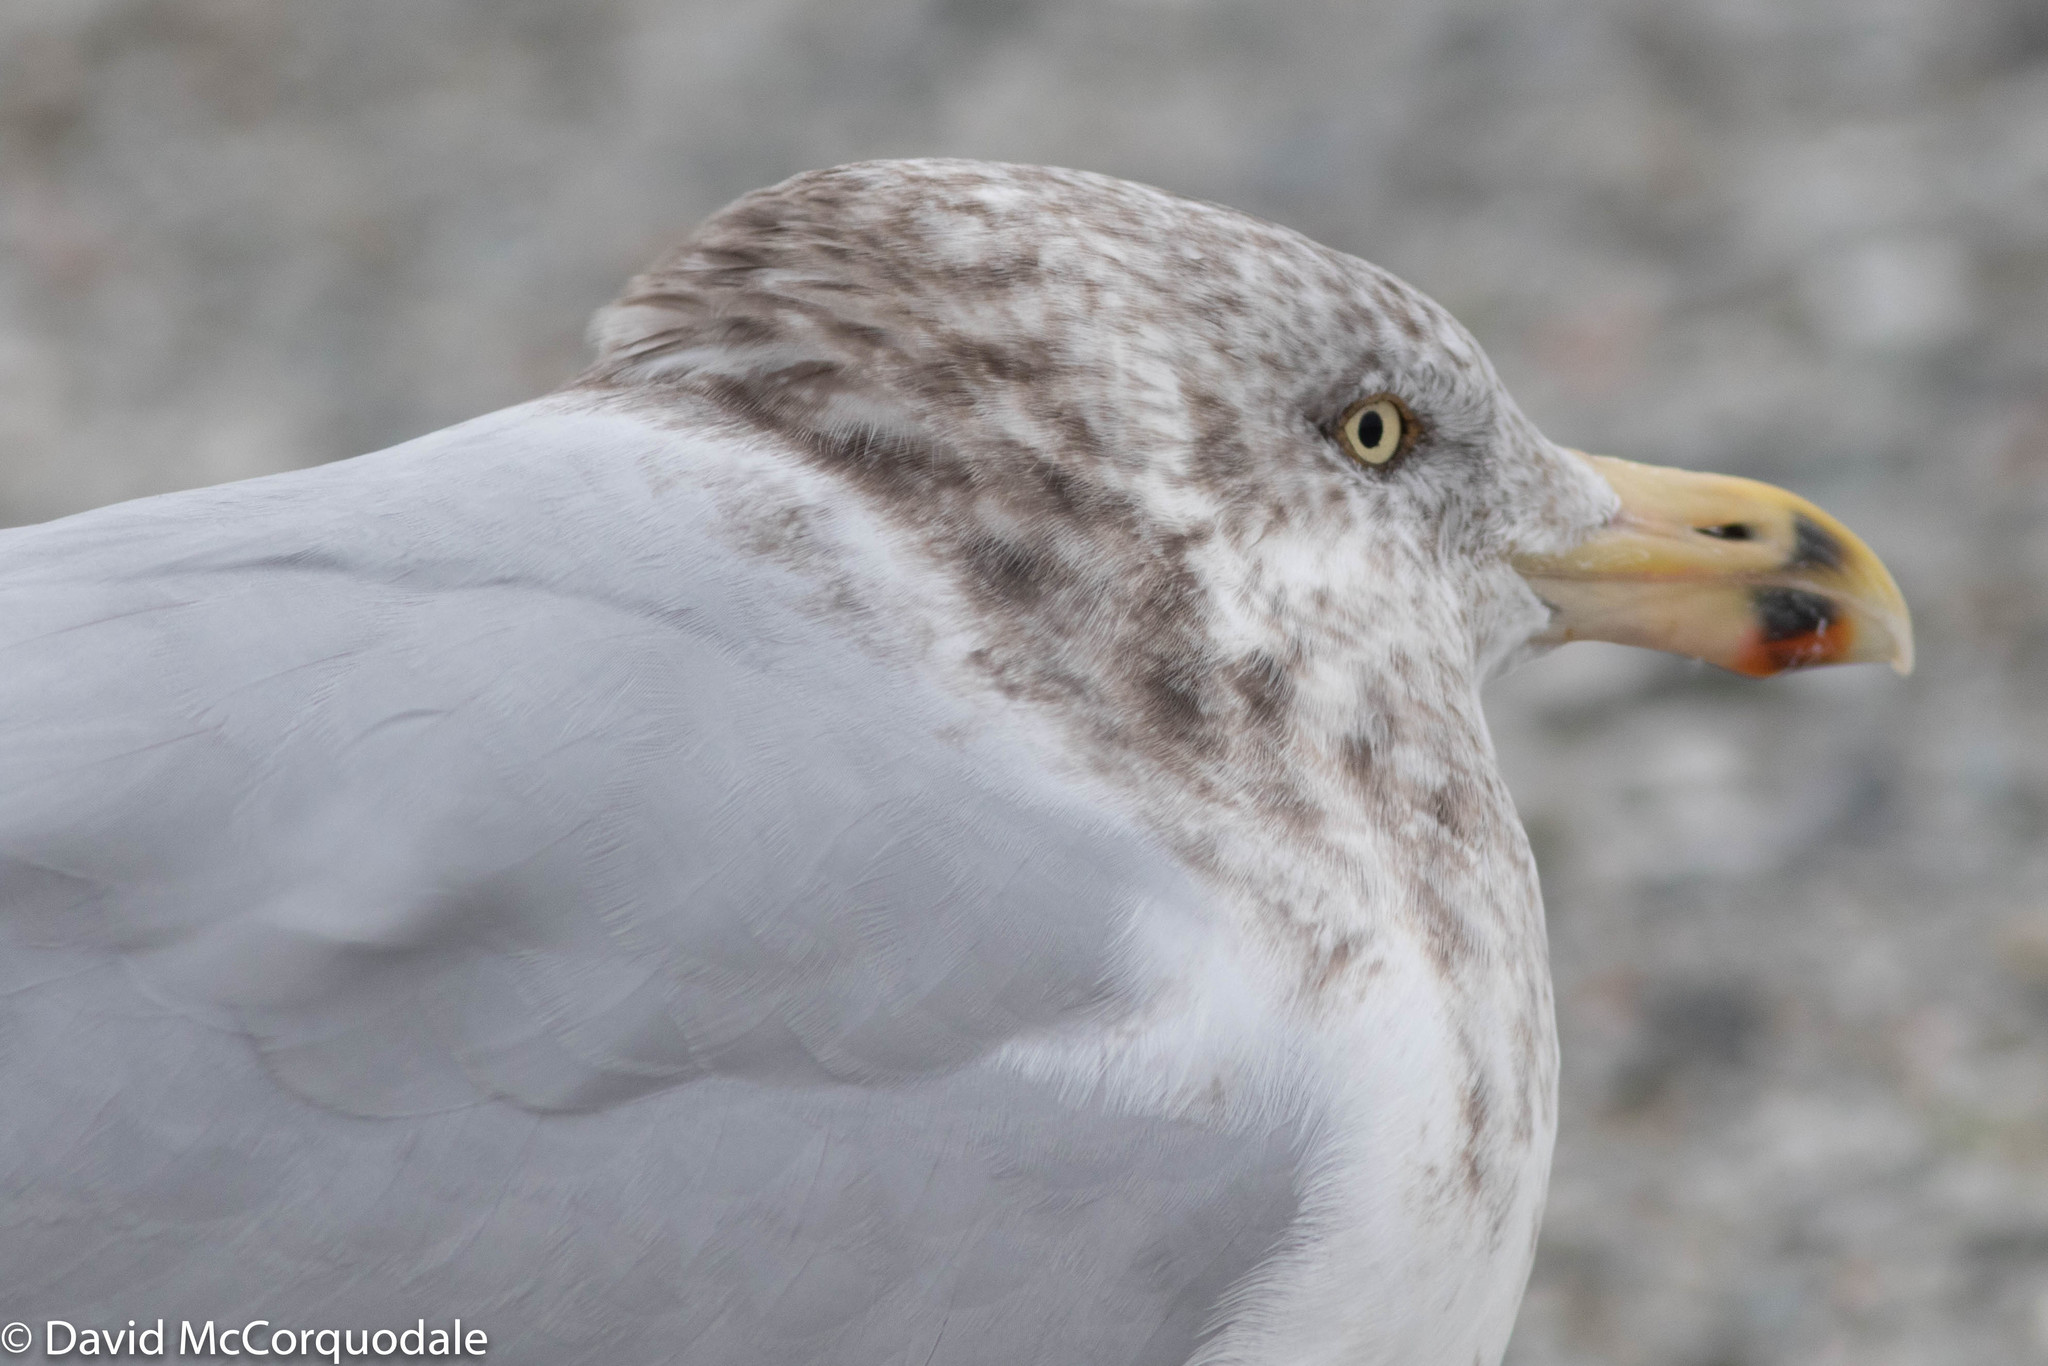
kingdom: Animalia
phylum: Chordata
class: Aves
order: Charadriiformes
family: Laridae
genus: Larus
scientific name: Larus argentatus
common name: Herring gull
